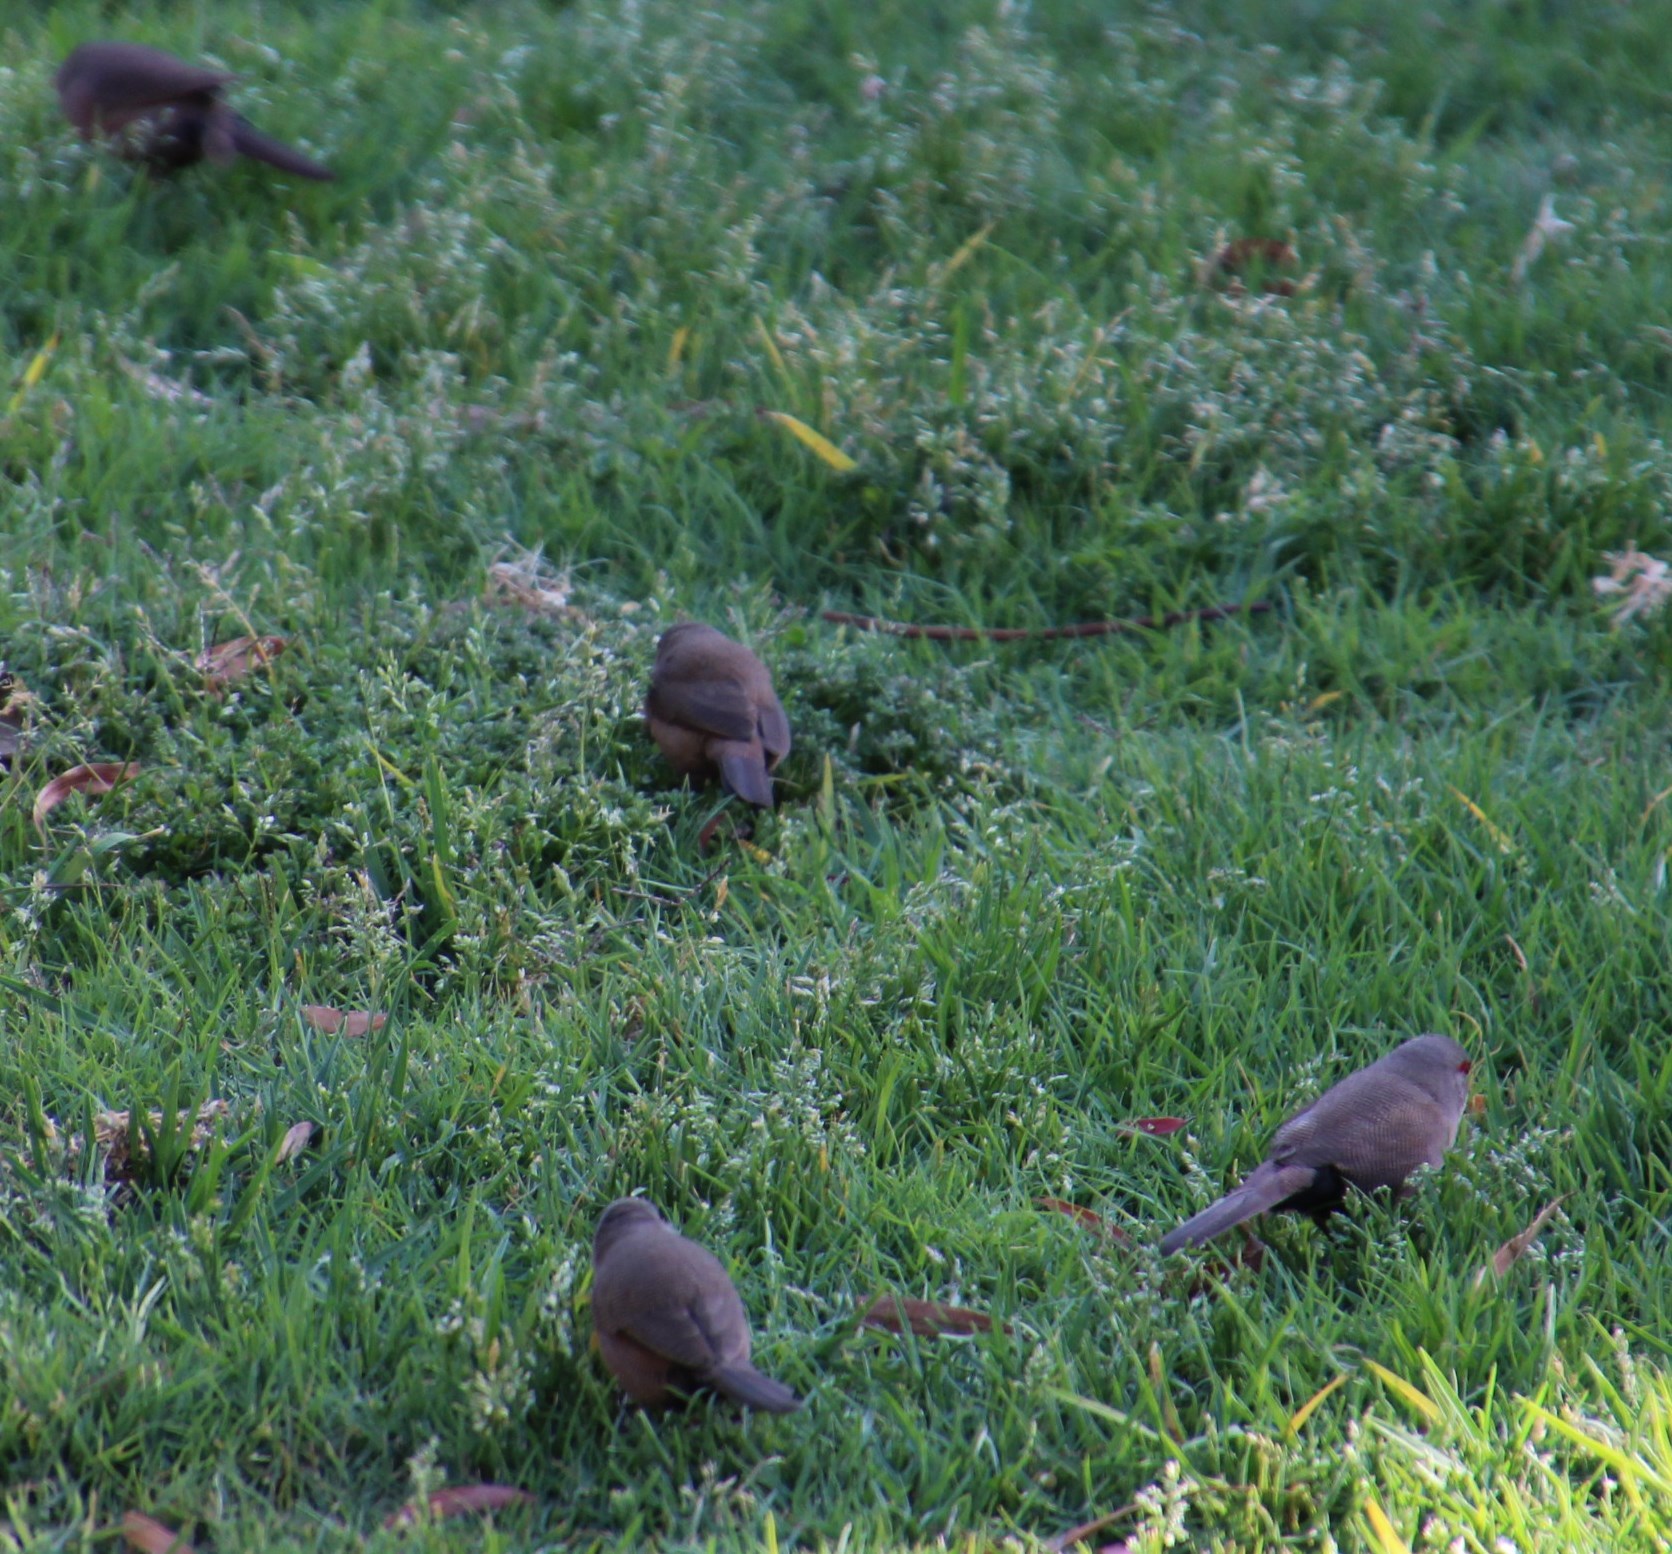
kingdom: Animalia
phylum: Chordata
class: Aves
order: Passeriformes
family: Estrildidae
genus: Estrilda
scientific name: Estrilda astrild
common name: Common waxbill
